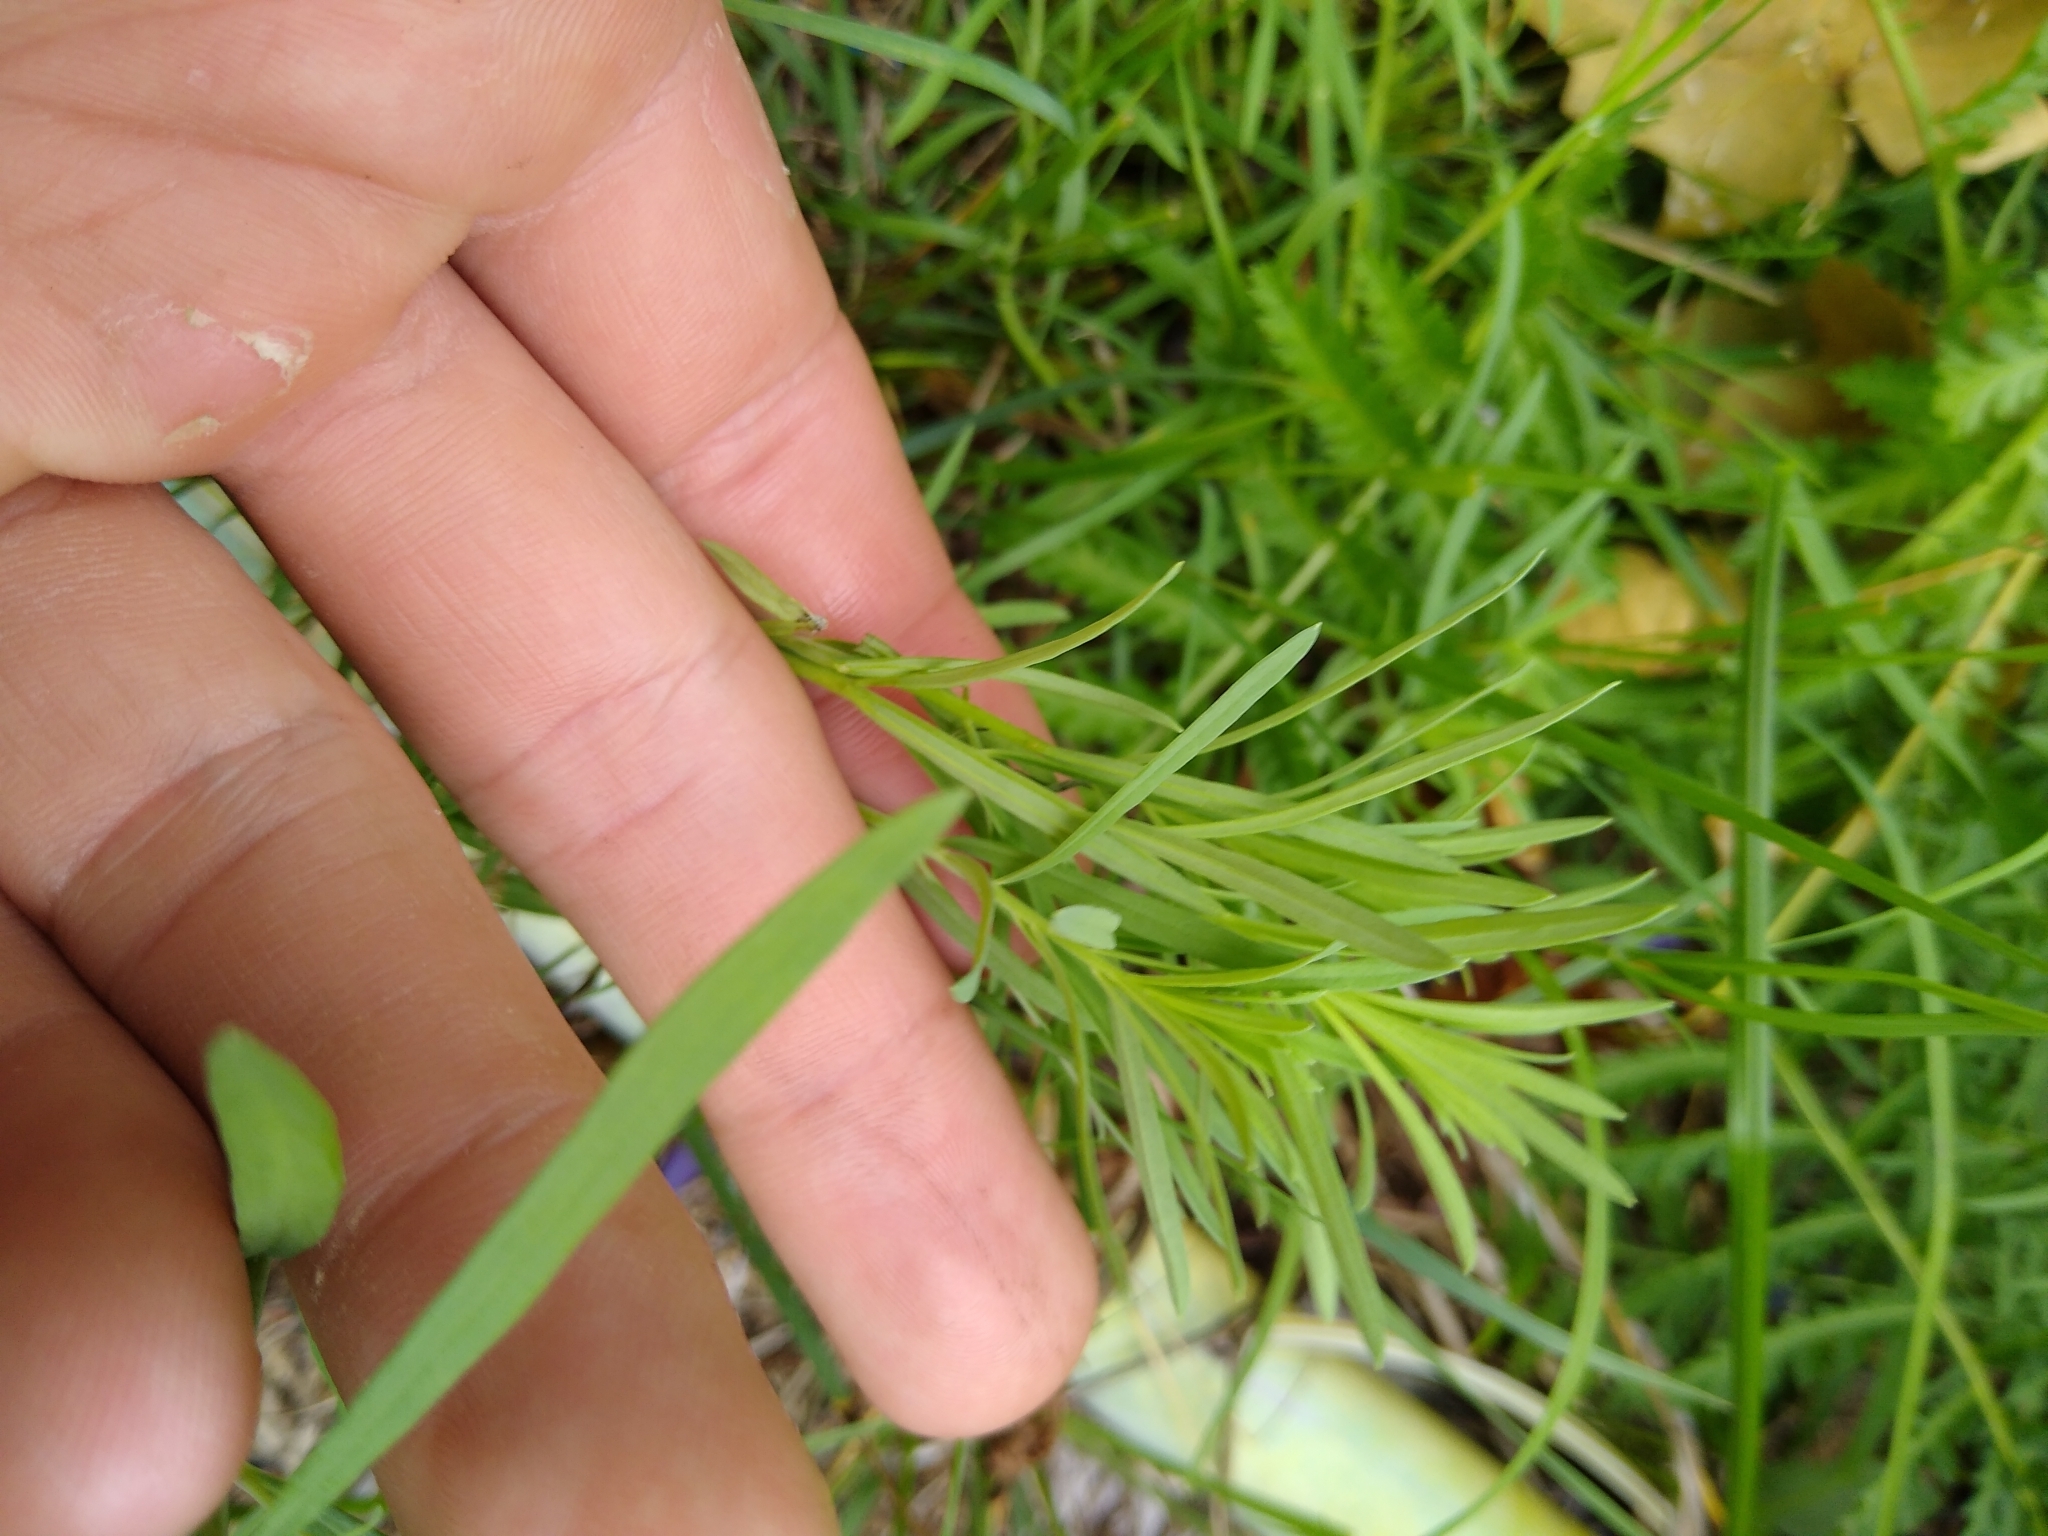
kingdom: Plantae
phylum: Tracheophyta
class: Magnoliopsida
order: Lamiales
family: Plantaginaceae
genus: Linaria
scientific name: Linaria vulgaris
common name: Butter and eggs
